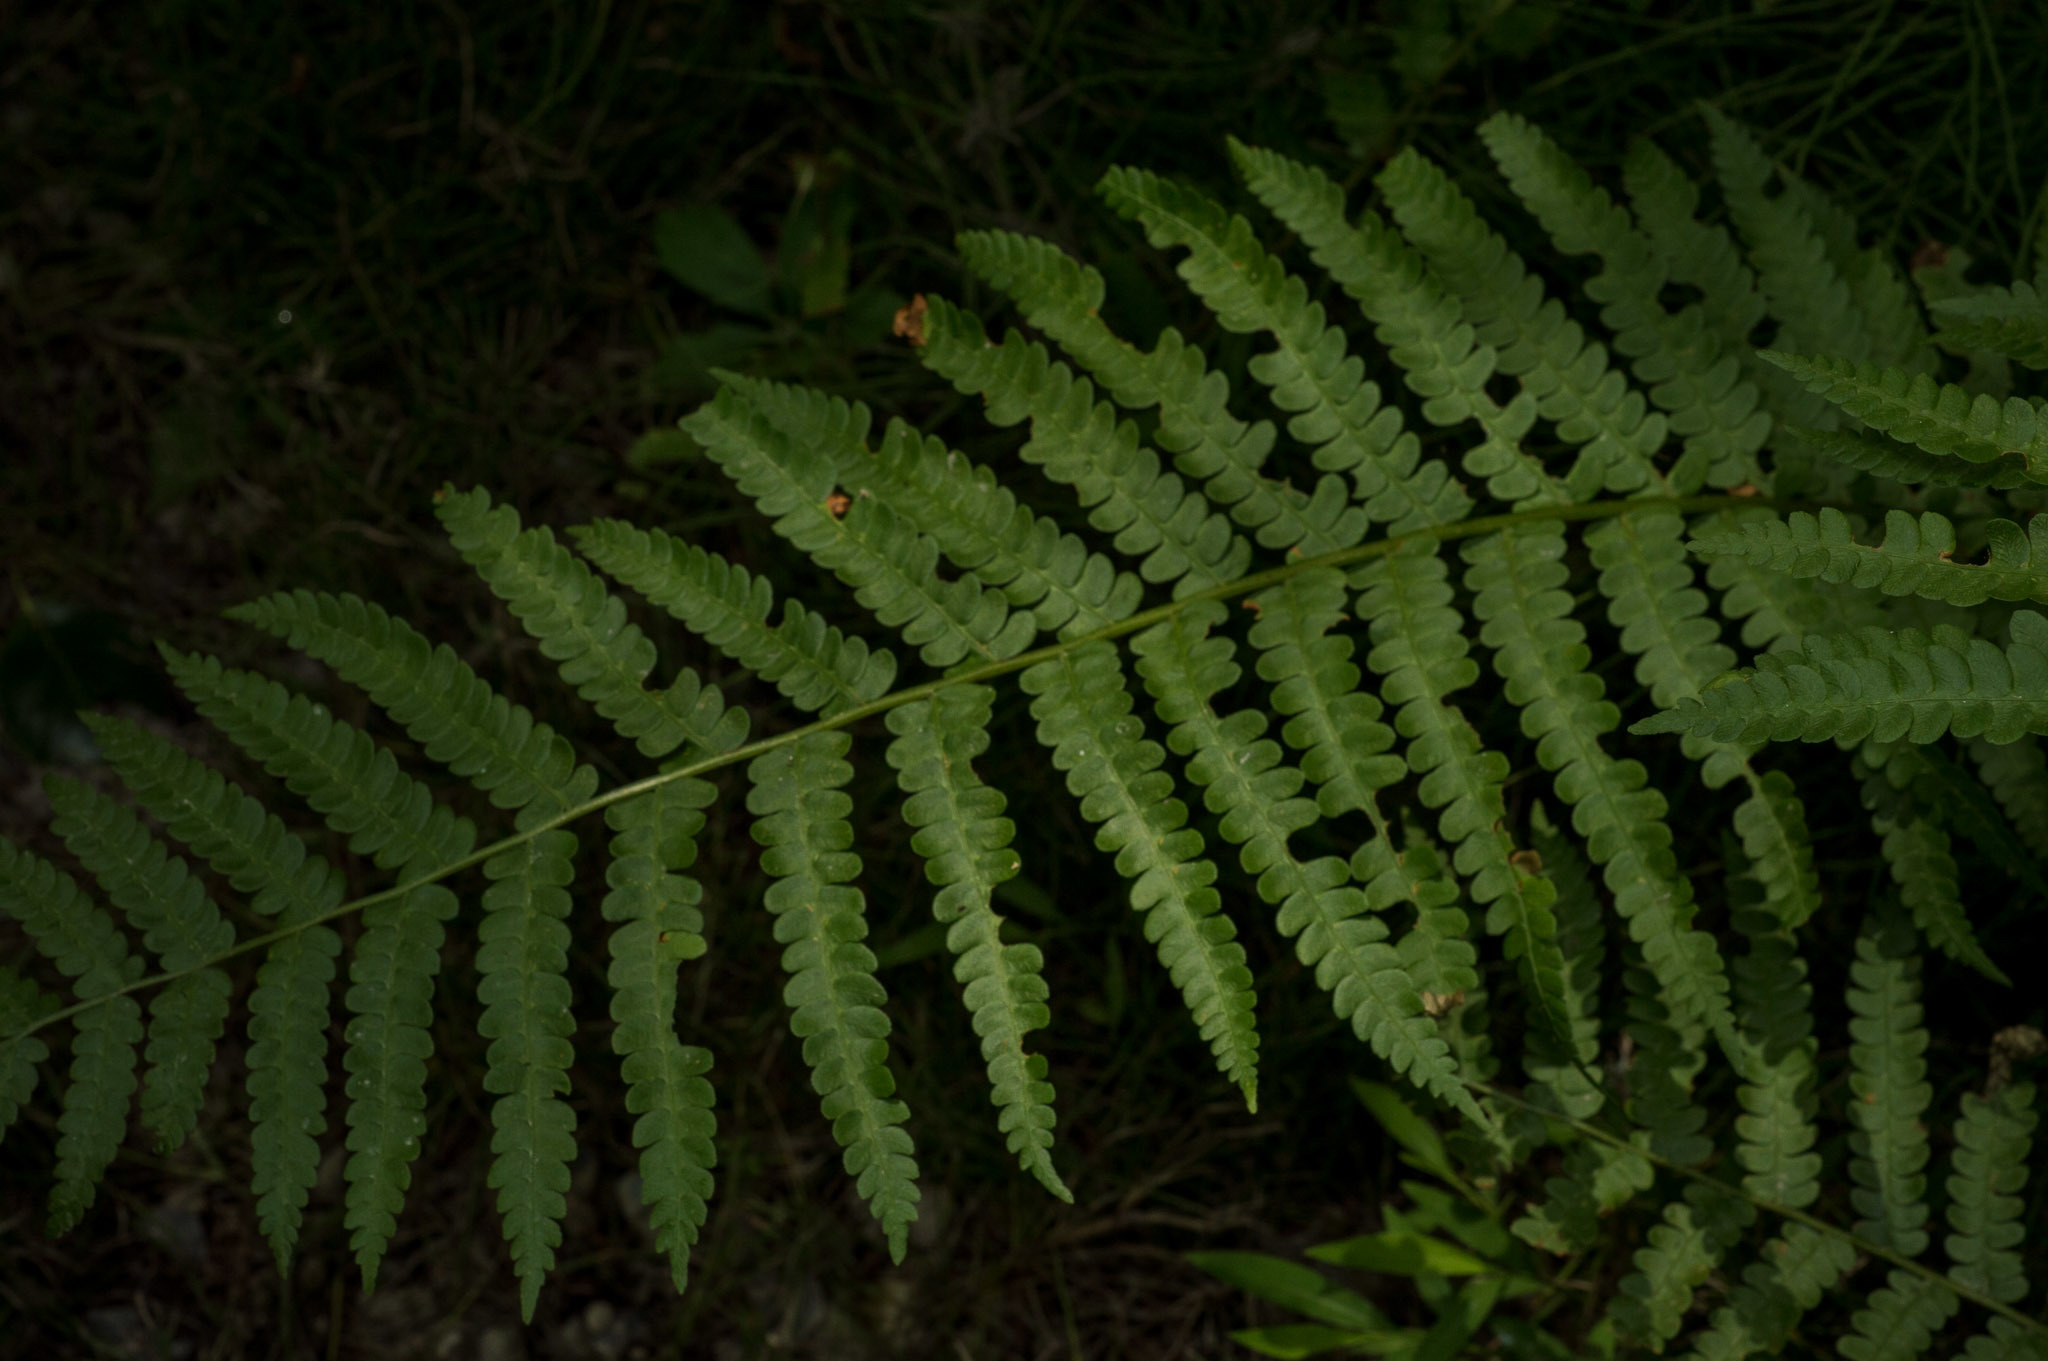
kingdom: Plantae
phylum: Tracheophyta
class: Polypodiopsida
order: Osmundales
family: Osmundaceae
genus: Osmundastrum
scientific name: Osmundastrum cinnamomeum
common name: Cinnamon fern
